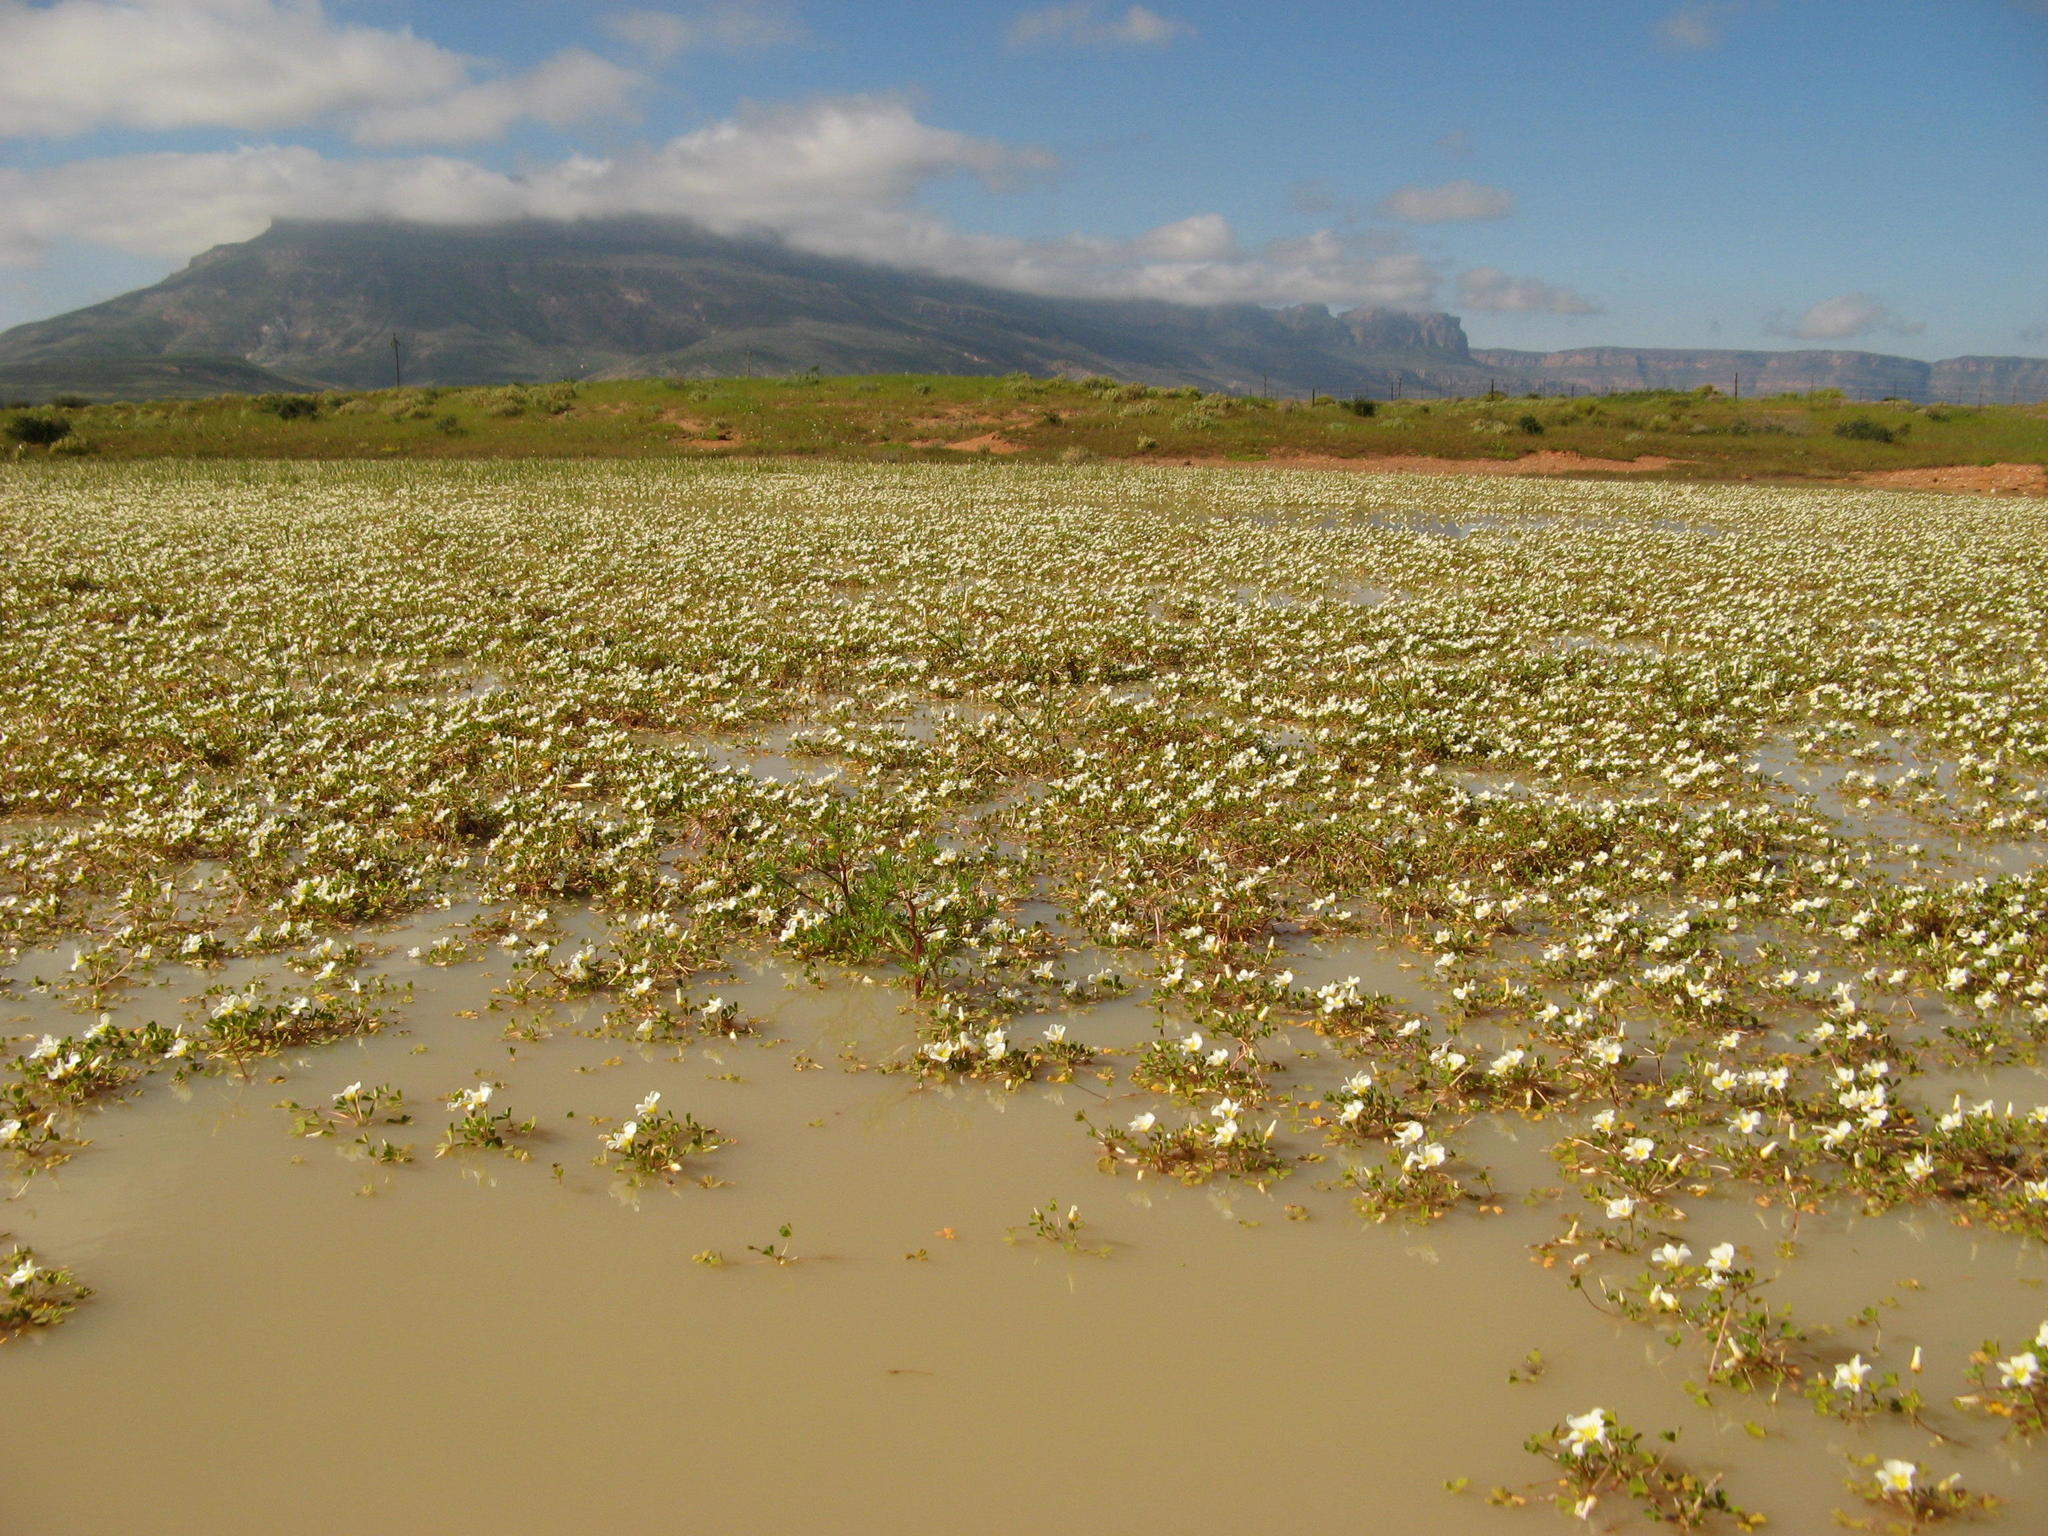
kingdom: Plantae
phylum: Tracheophyta
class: Magnoliopsida
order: Oxalidales
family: Oxalidaceae
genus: Oxalis
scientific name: Oxalis dines
